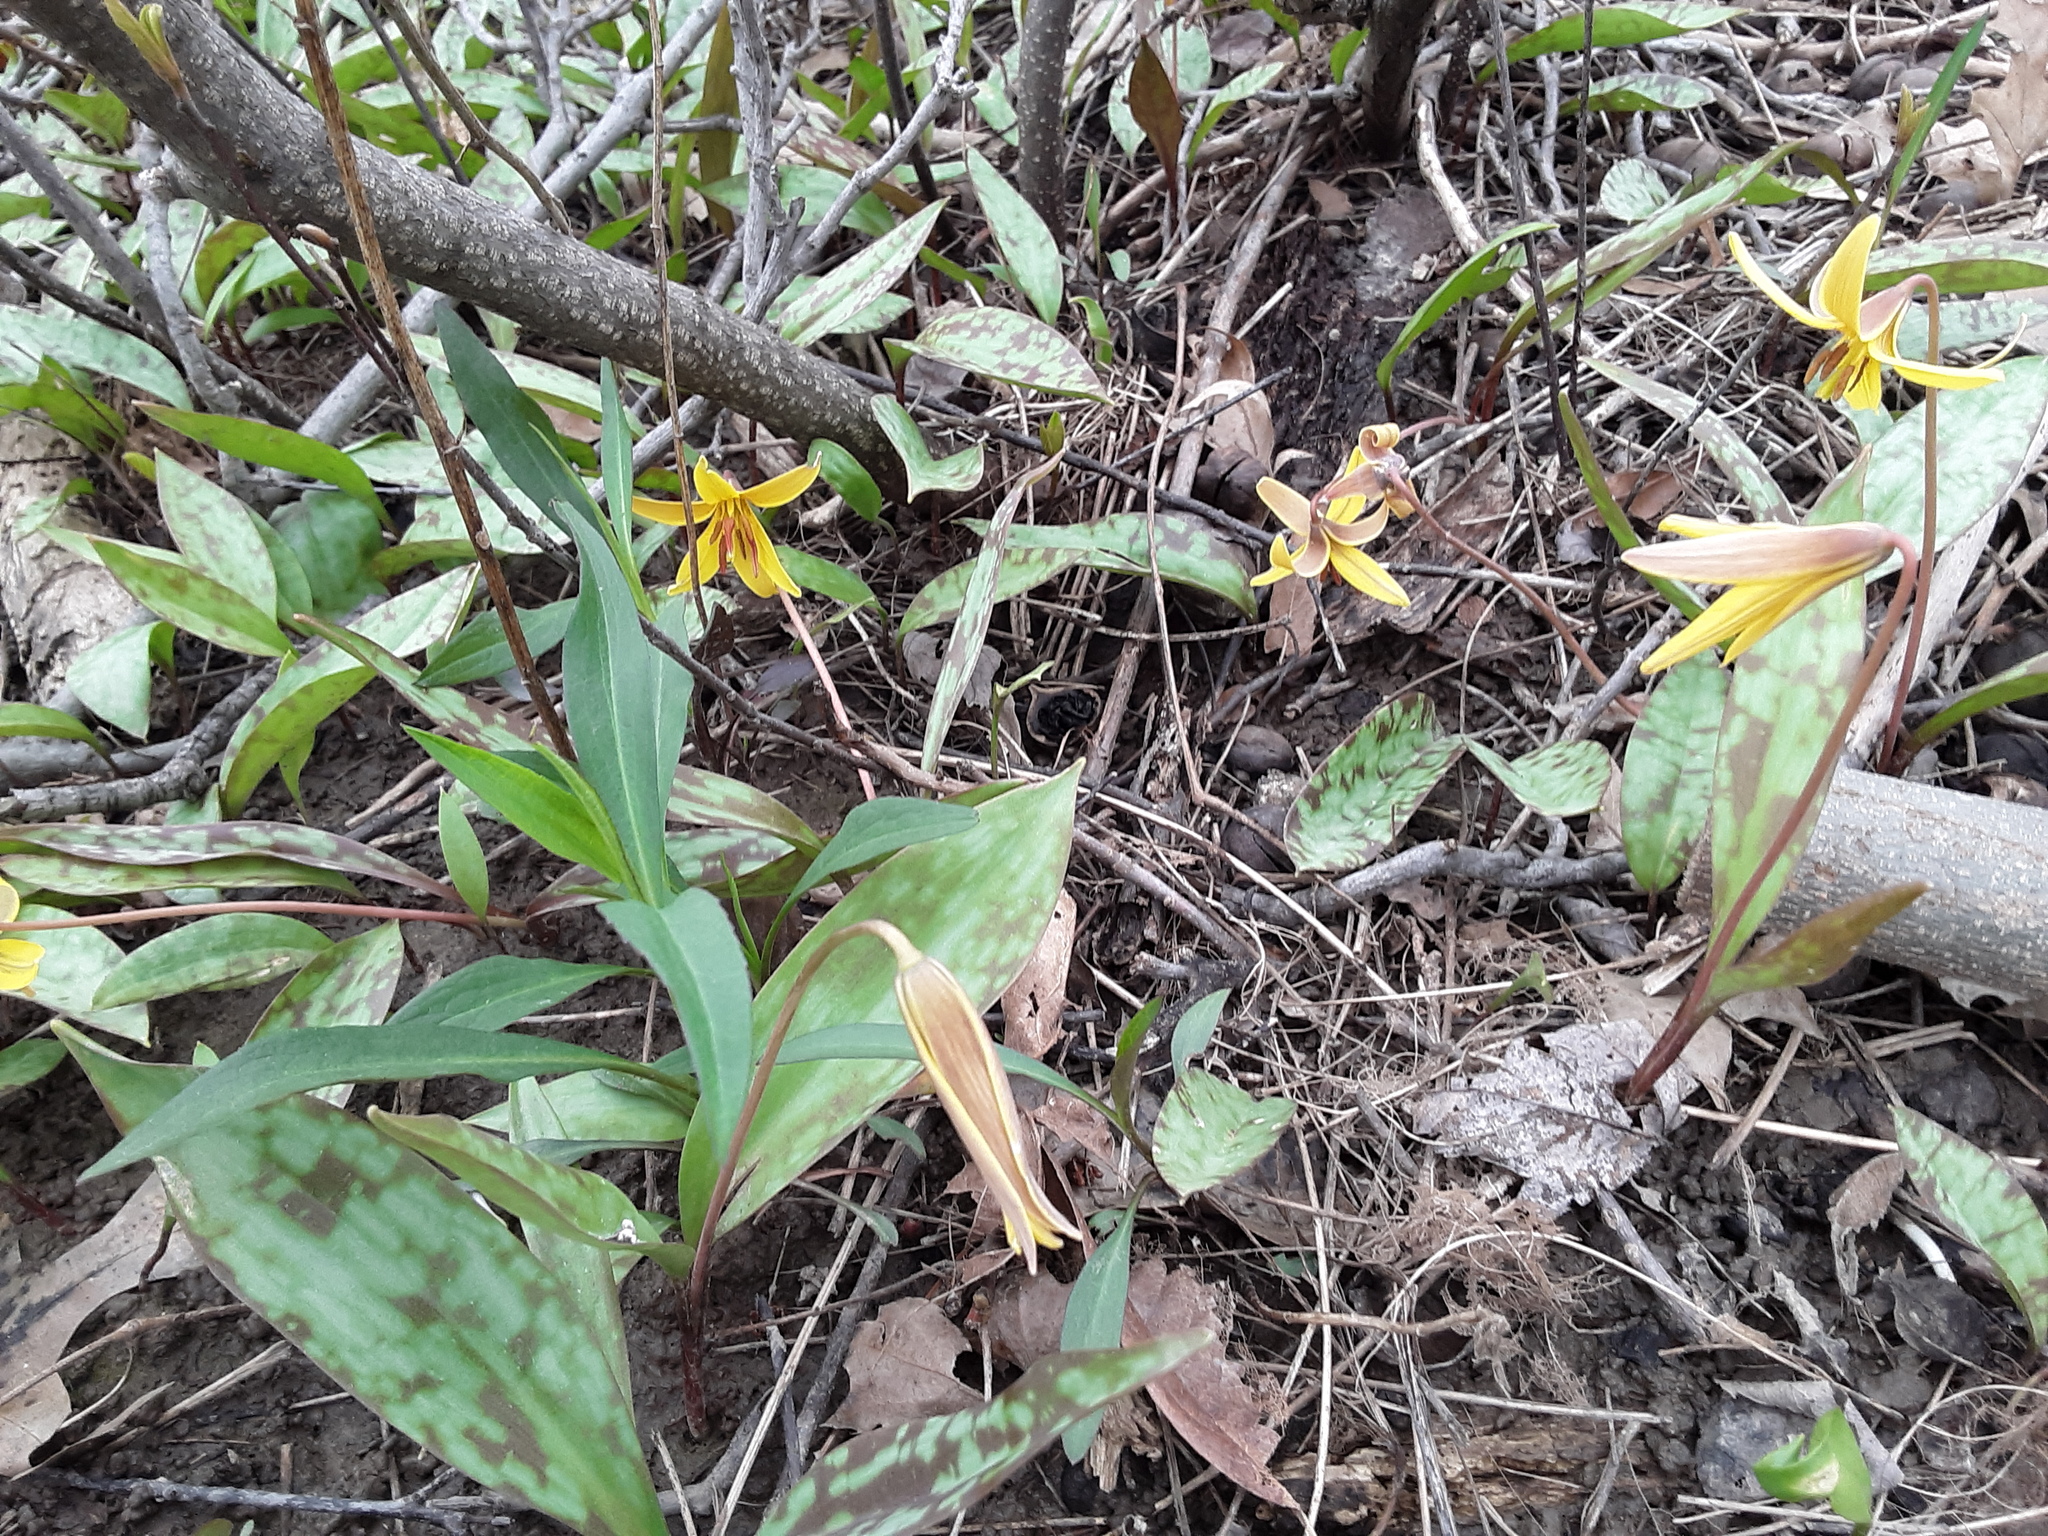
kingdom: Plantae
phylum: Tracheophyta
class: Liliopsida
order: Liliales
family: Liliaceae
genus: Erythronium
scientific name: Erythronium americanum
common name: Yellow adder's-tongue
